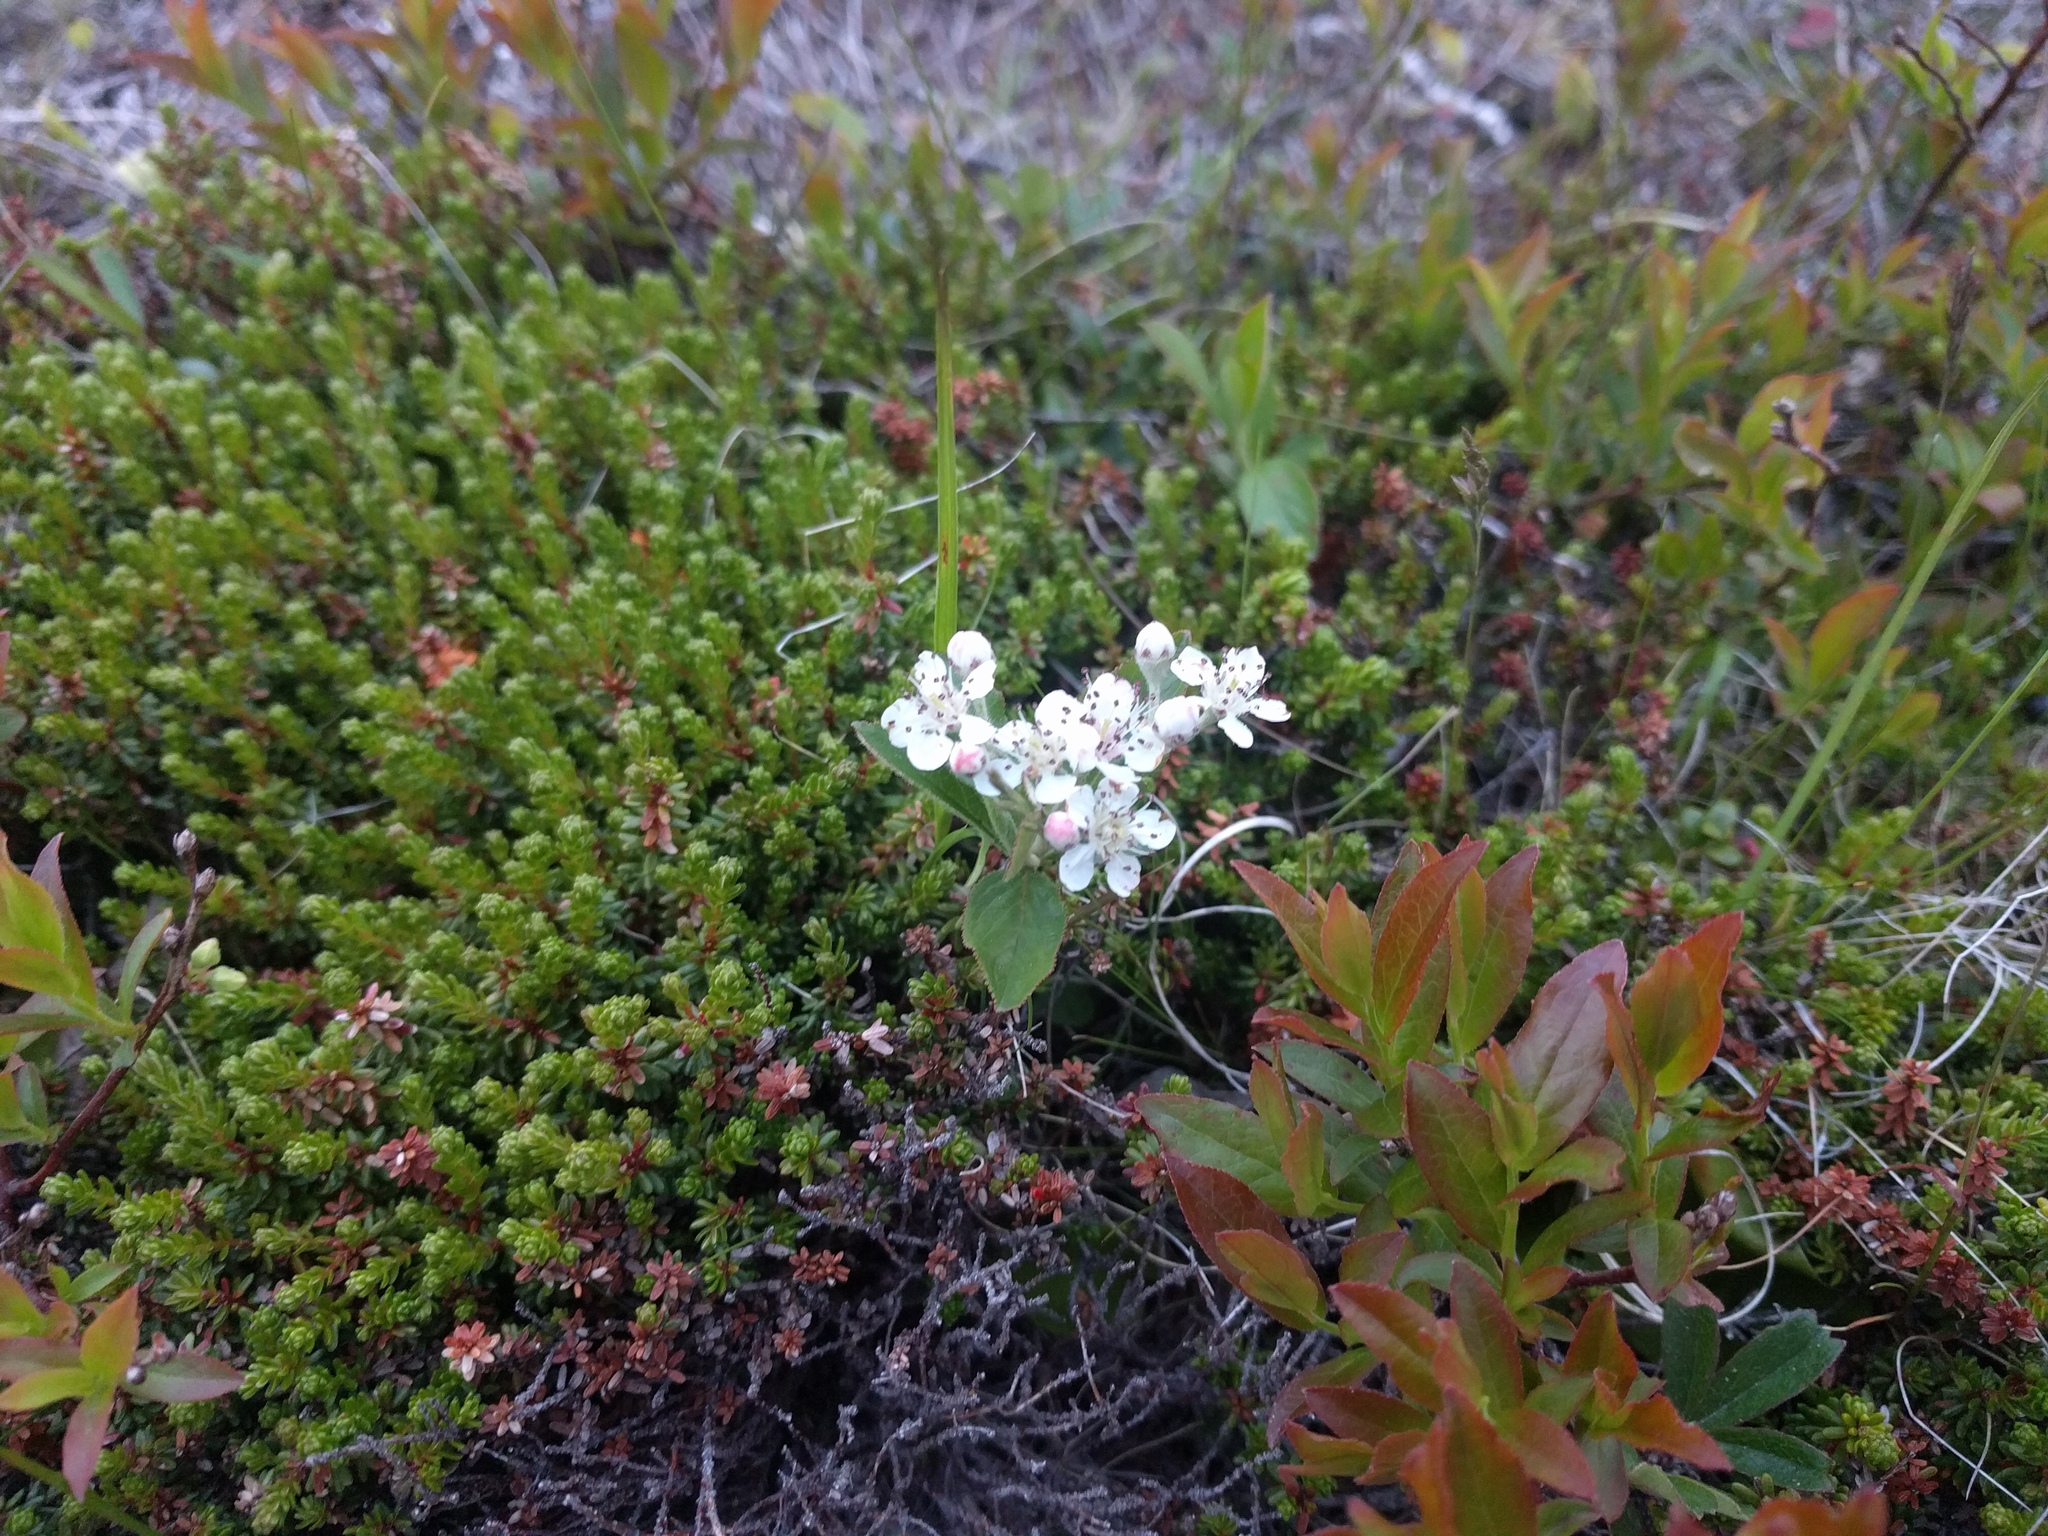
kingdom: Plantae
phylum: Tracheophyta
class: Magnoliopsida
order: Rosales
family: Rosaceae
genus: Sibbaldia
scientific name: Sibbaldia tridentata
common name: Three-toothed cinquefoil
